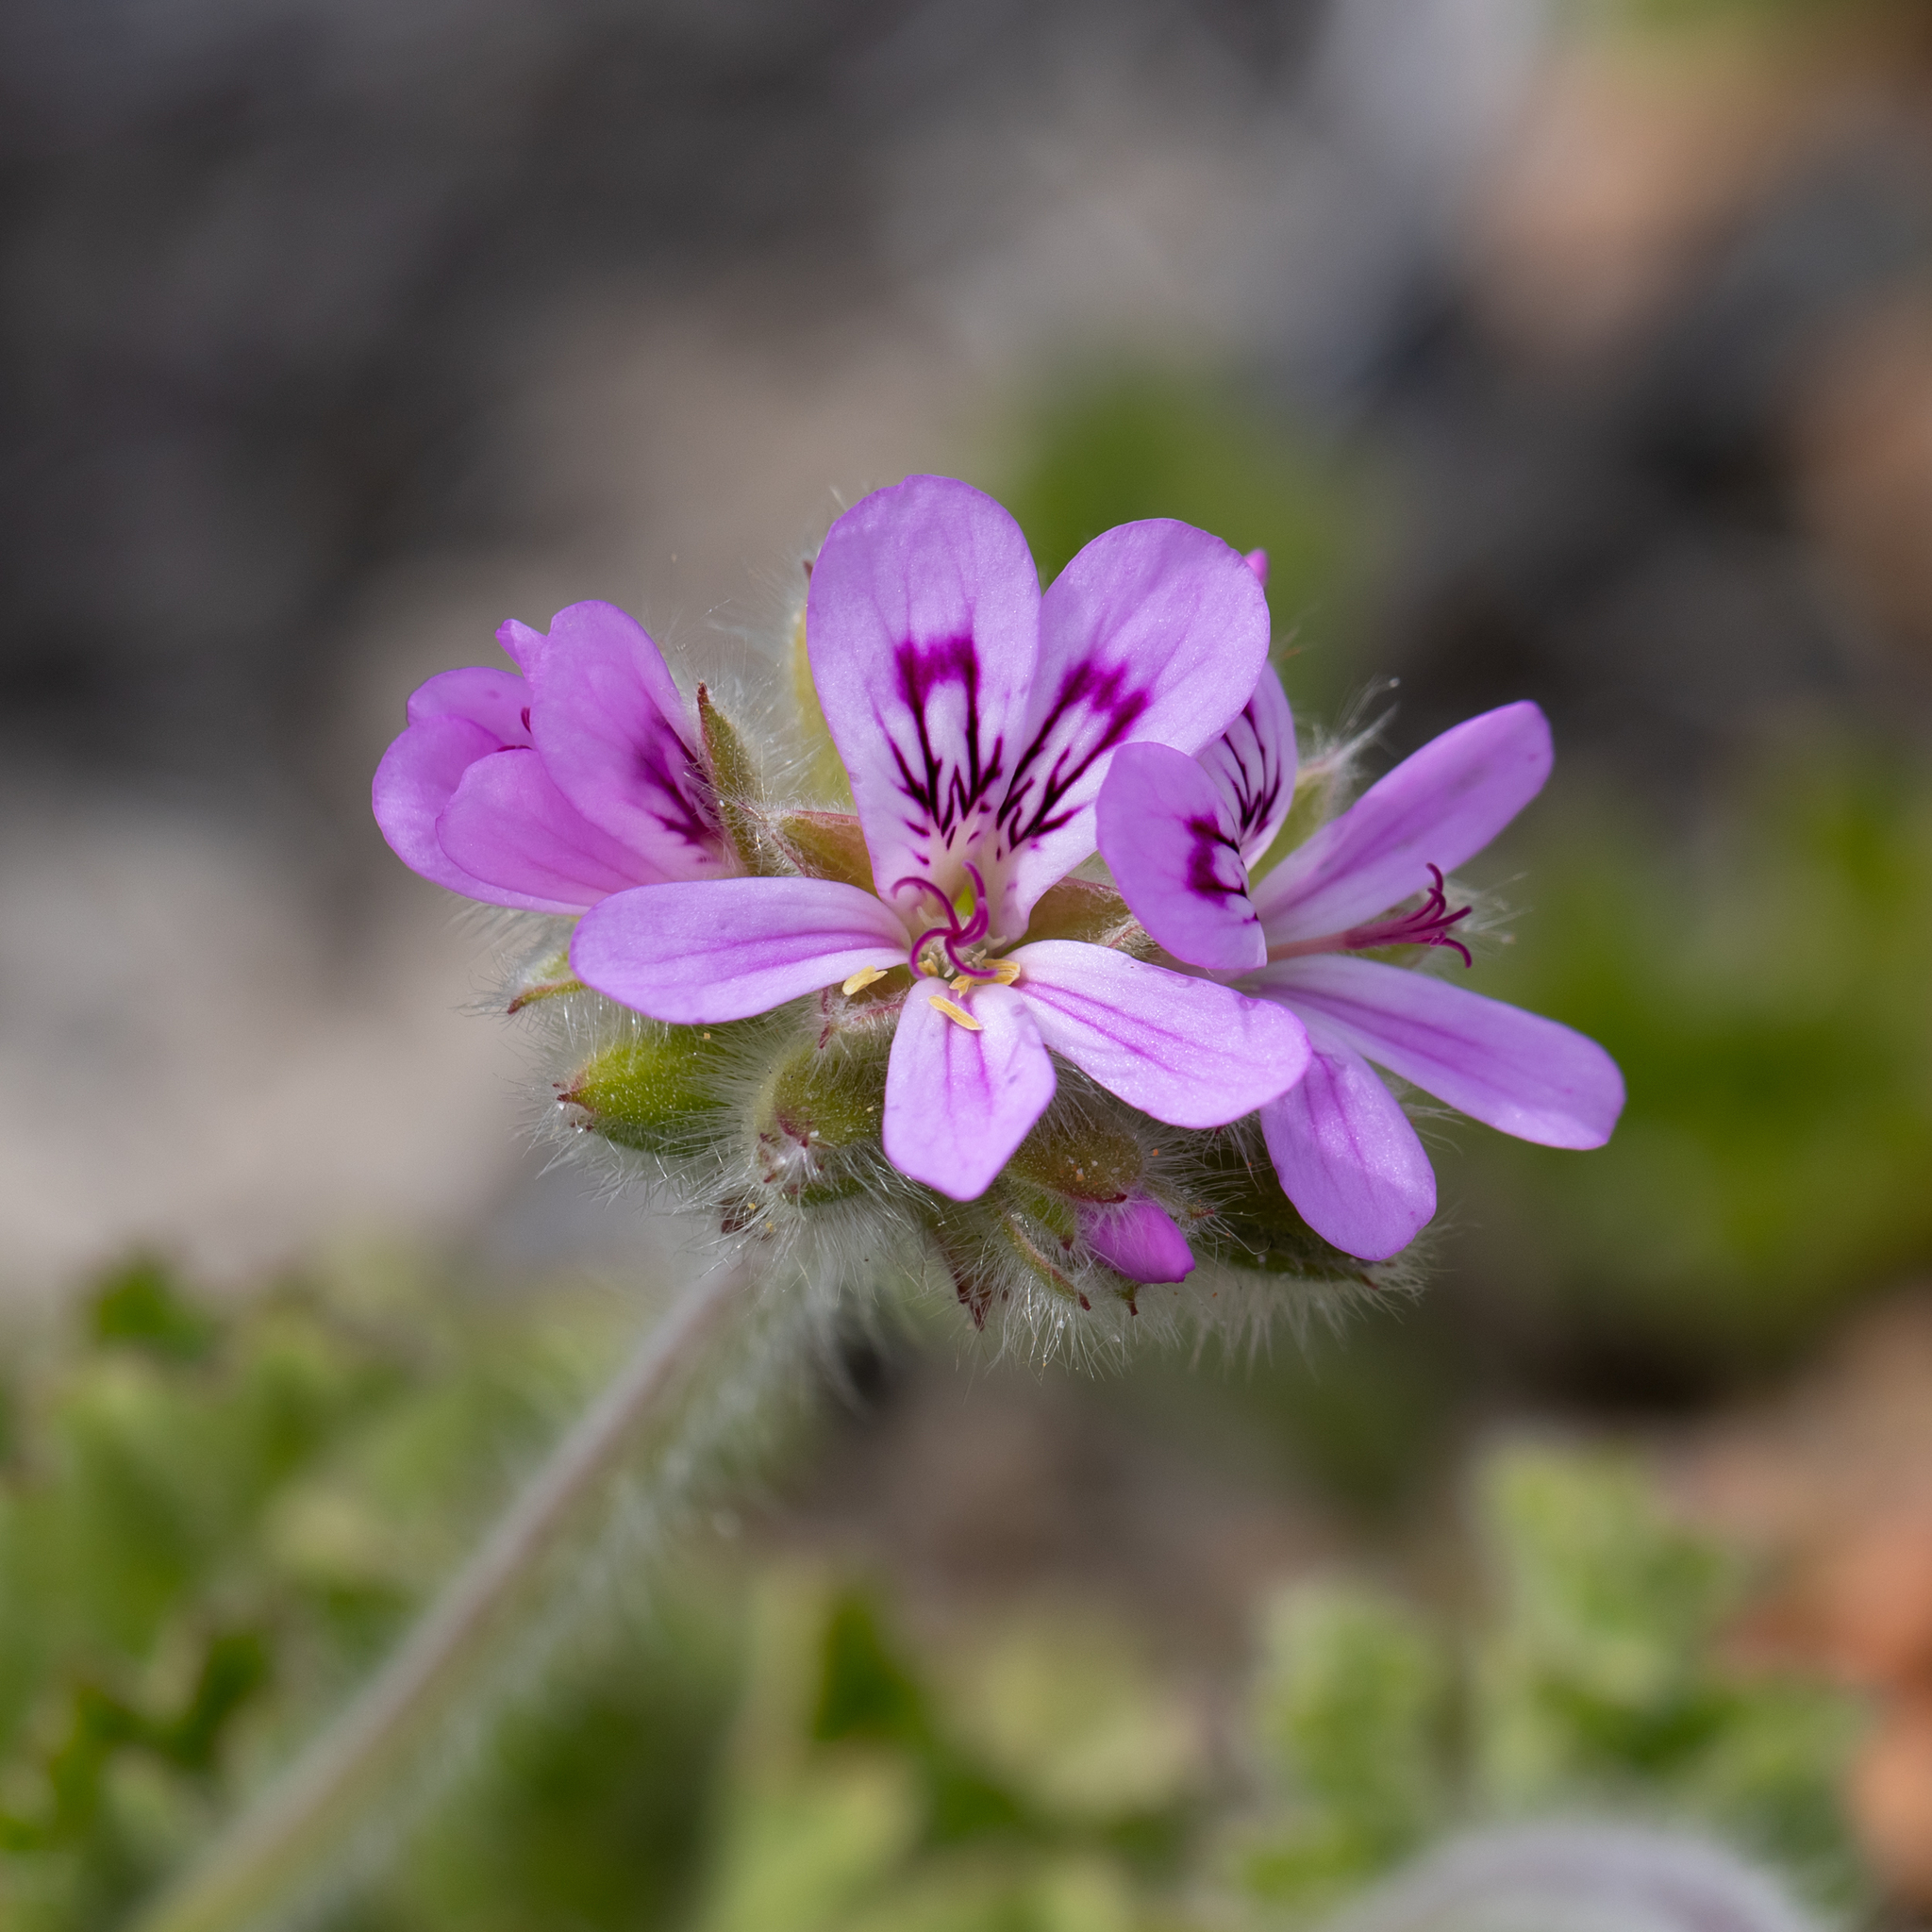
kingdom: Plantae
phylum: Tracheophyta
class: Magnoliopsida
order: Geraniales
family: Geraniaceae
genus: Pelargonium
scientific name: Pelargonium capitatum
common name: Rose scented geranium
